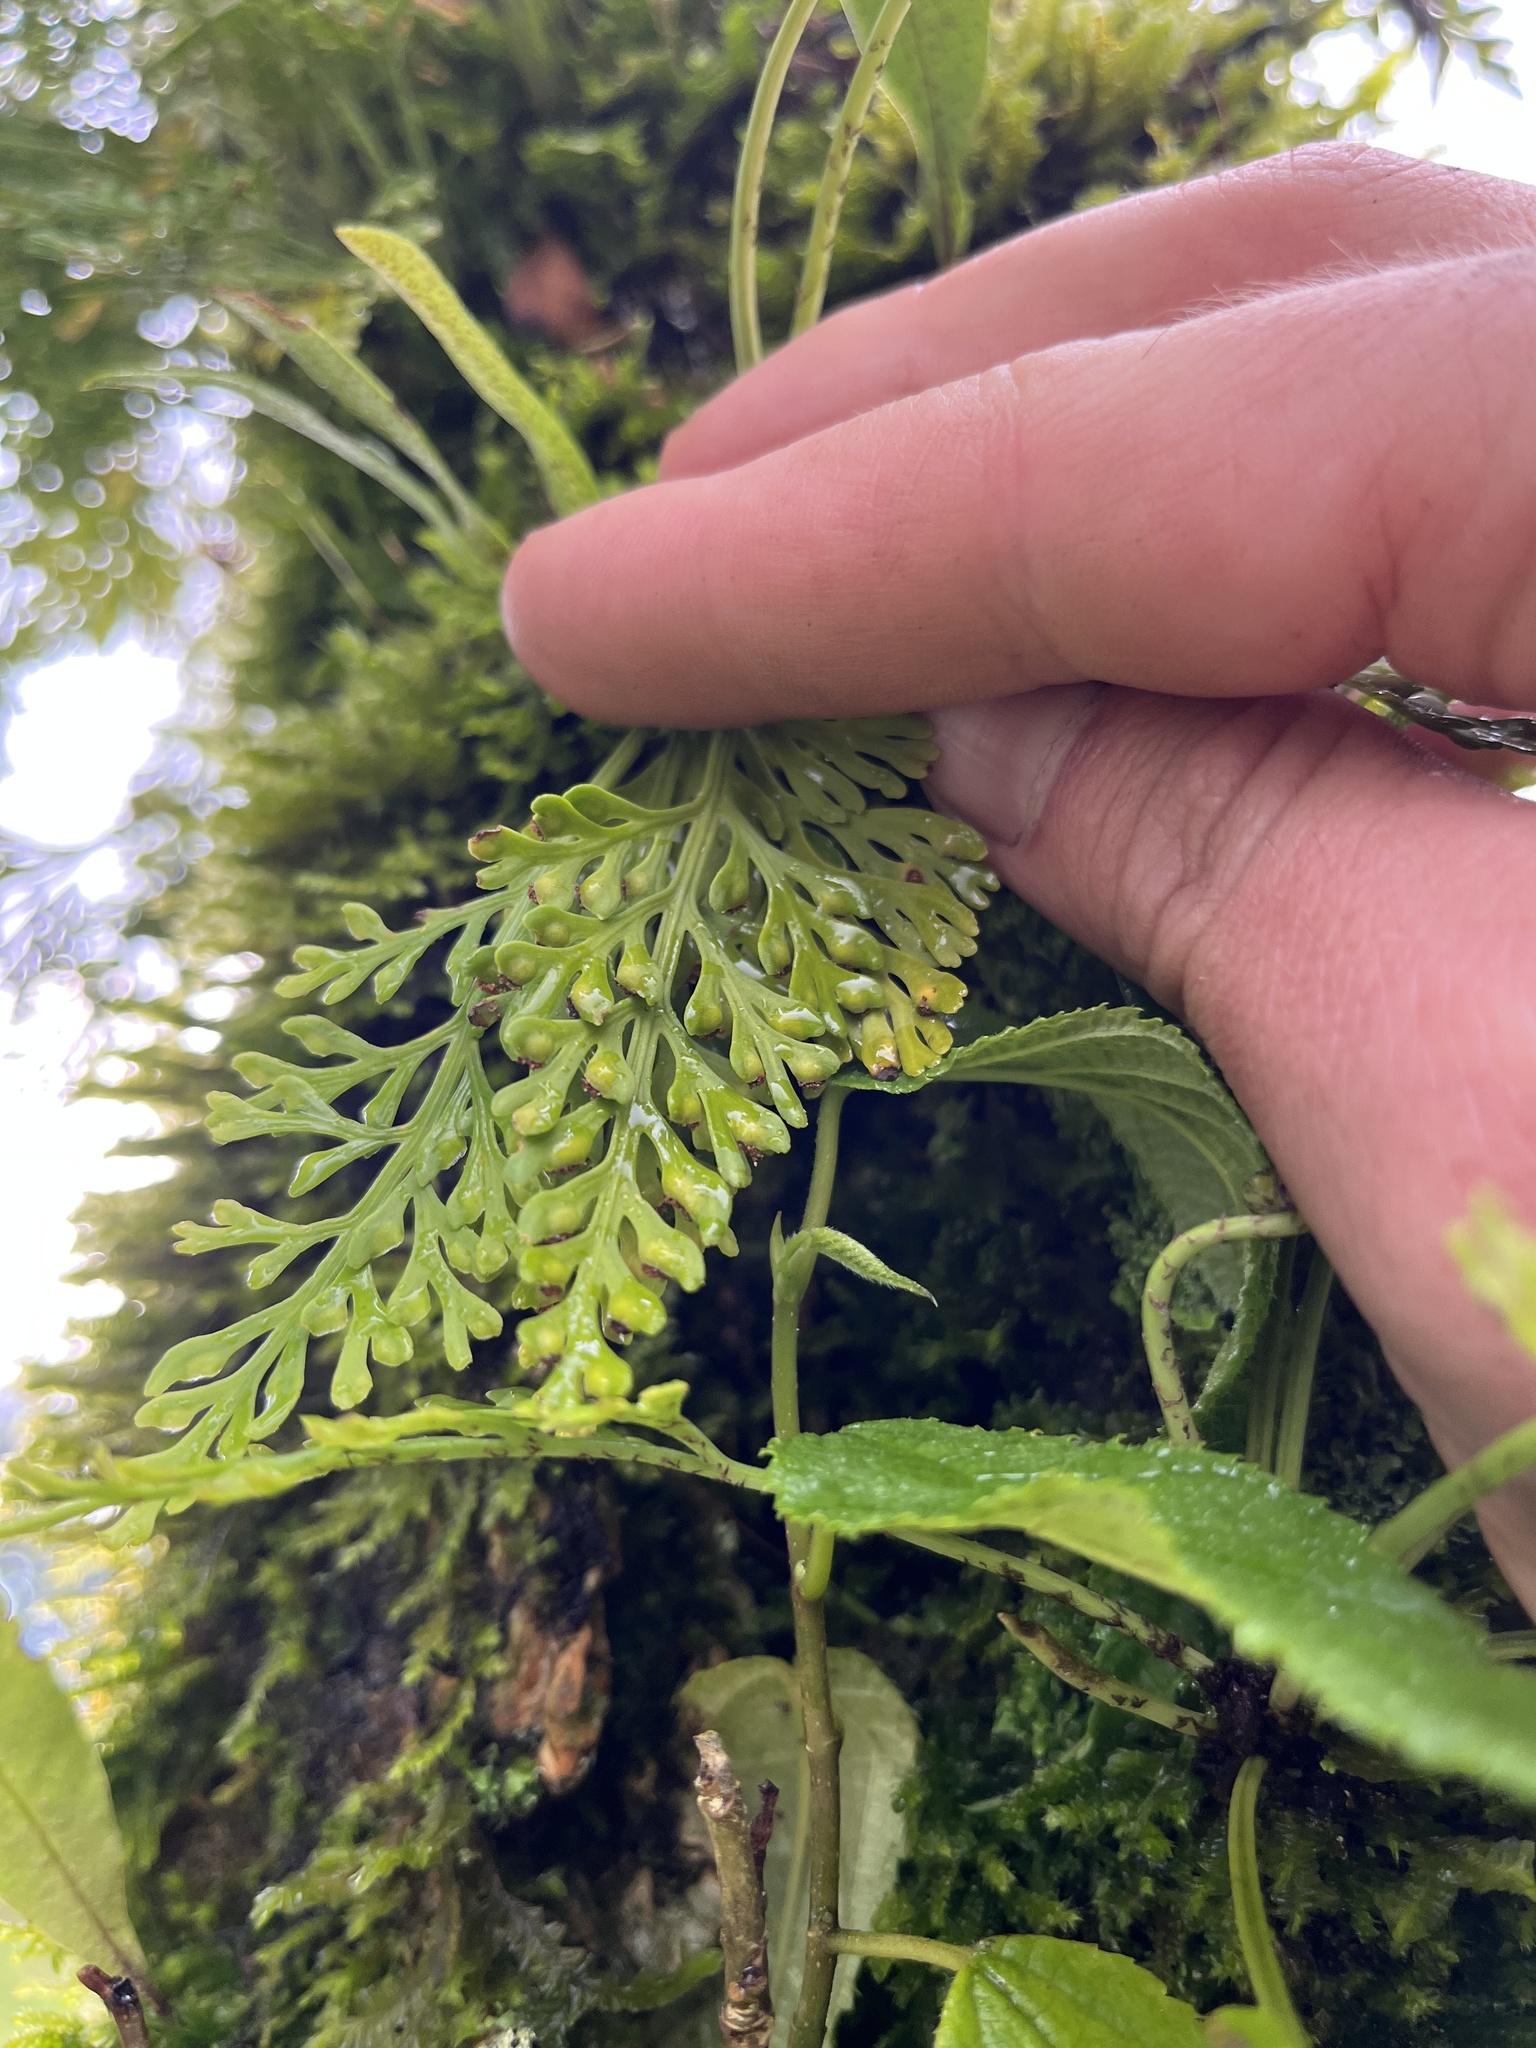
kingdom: Plantae
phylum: Tracheophyta
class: Polypodiopsida
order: Polypodiales
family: Aspleniaceae
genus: Asplenium
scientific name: Asplenium theciferum
